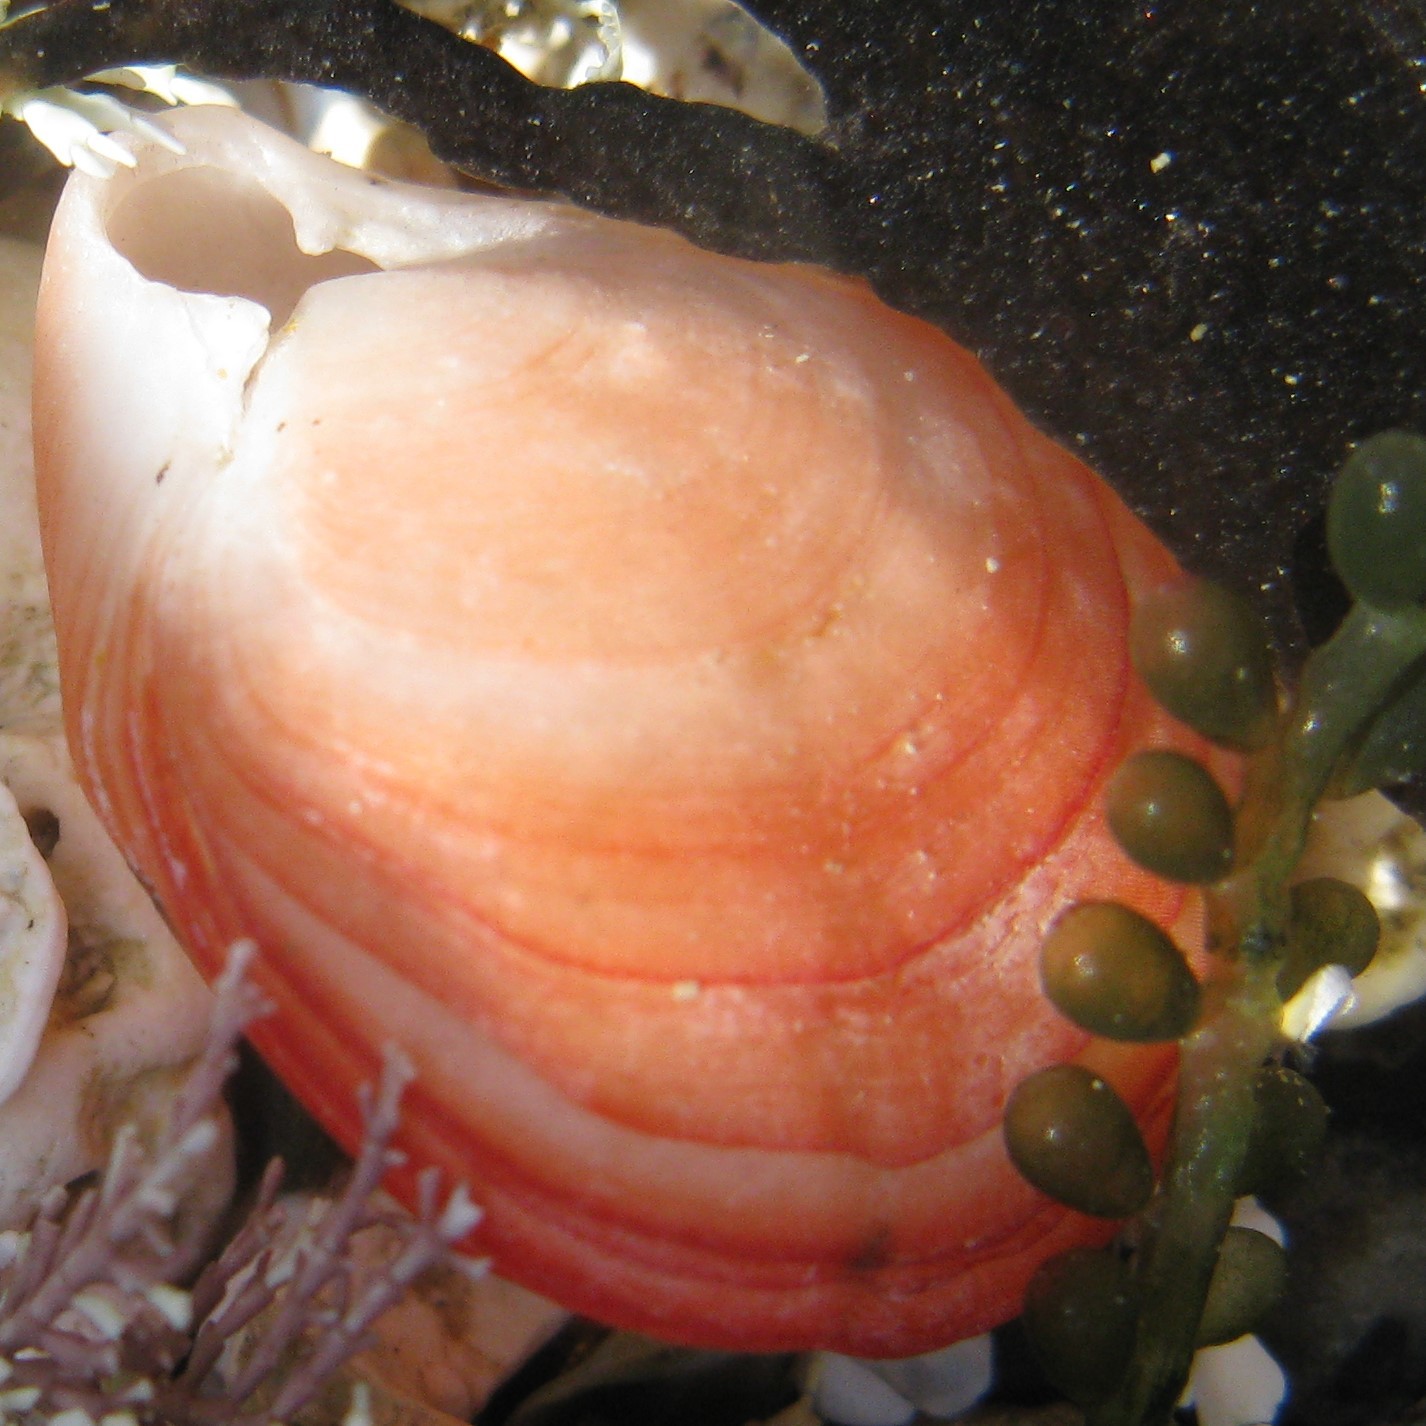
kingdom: Animalia
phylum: Brachiopoda
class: Rhynchonellata
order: Terebratulida
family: Terebratellidae
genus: Calloria
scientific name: Calloria inconspicua
